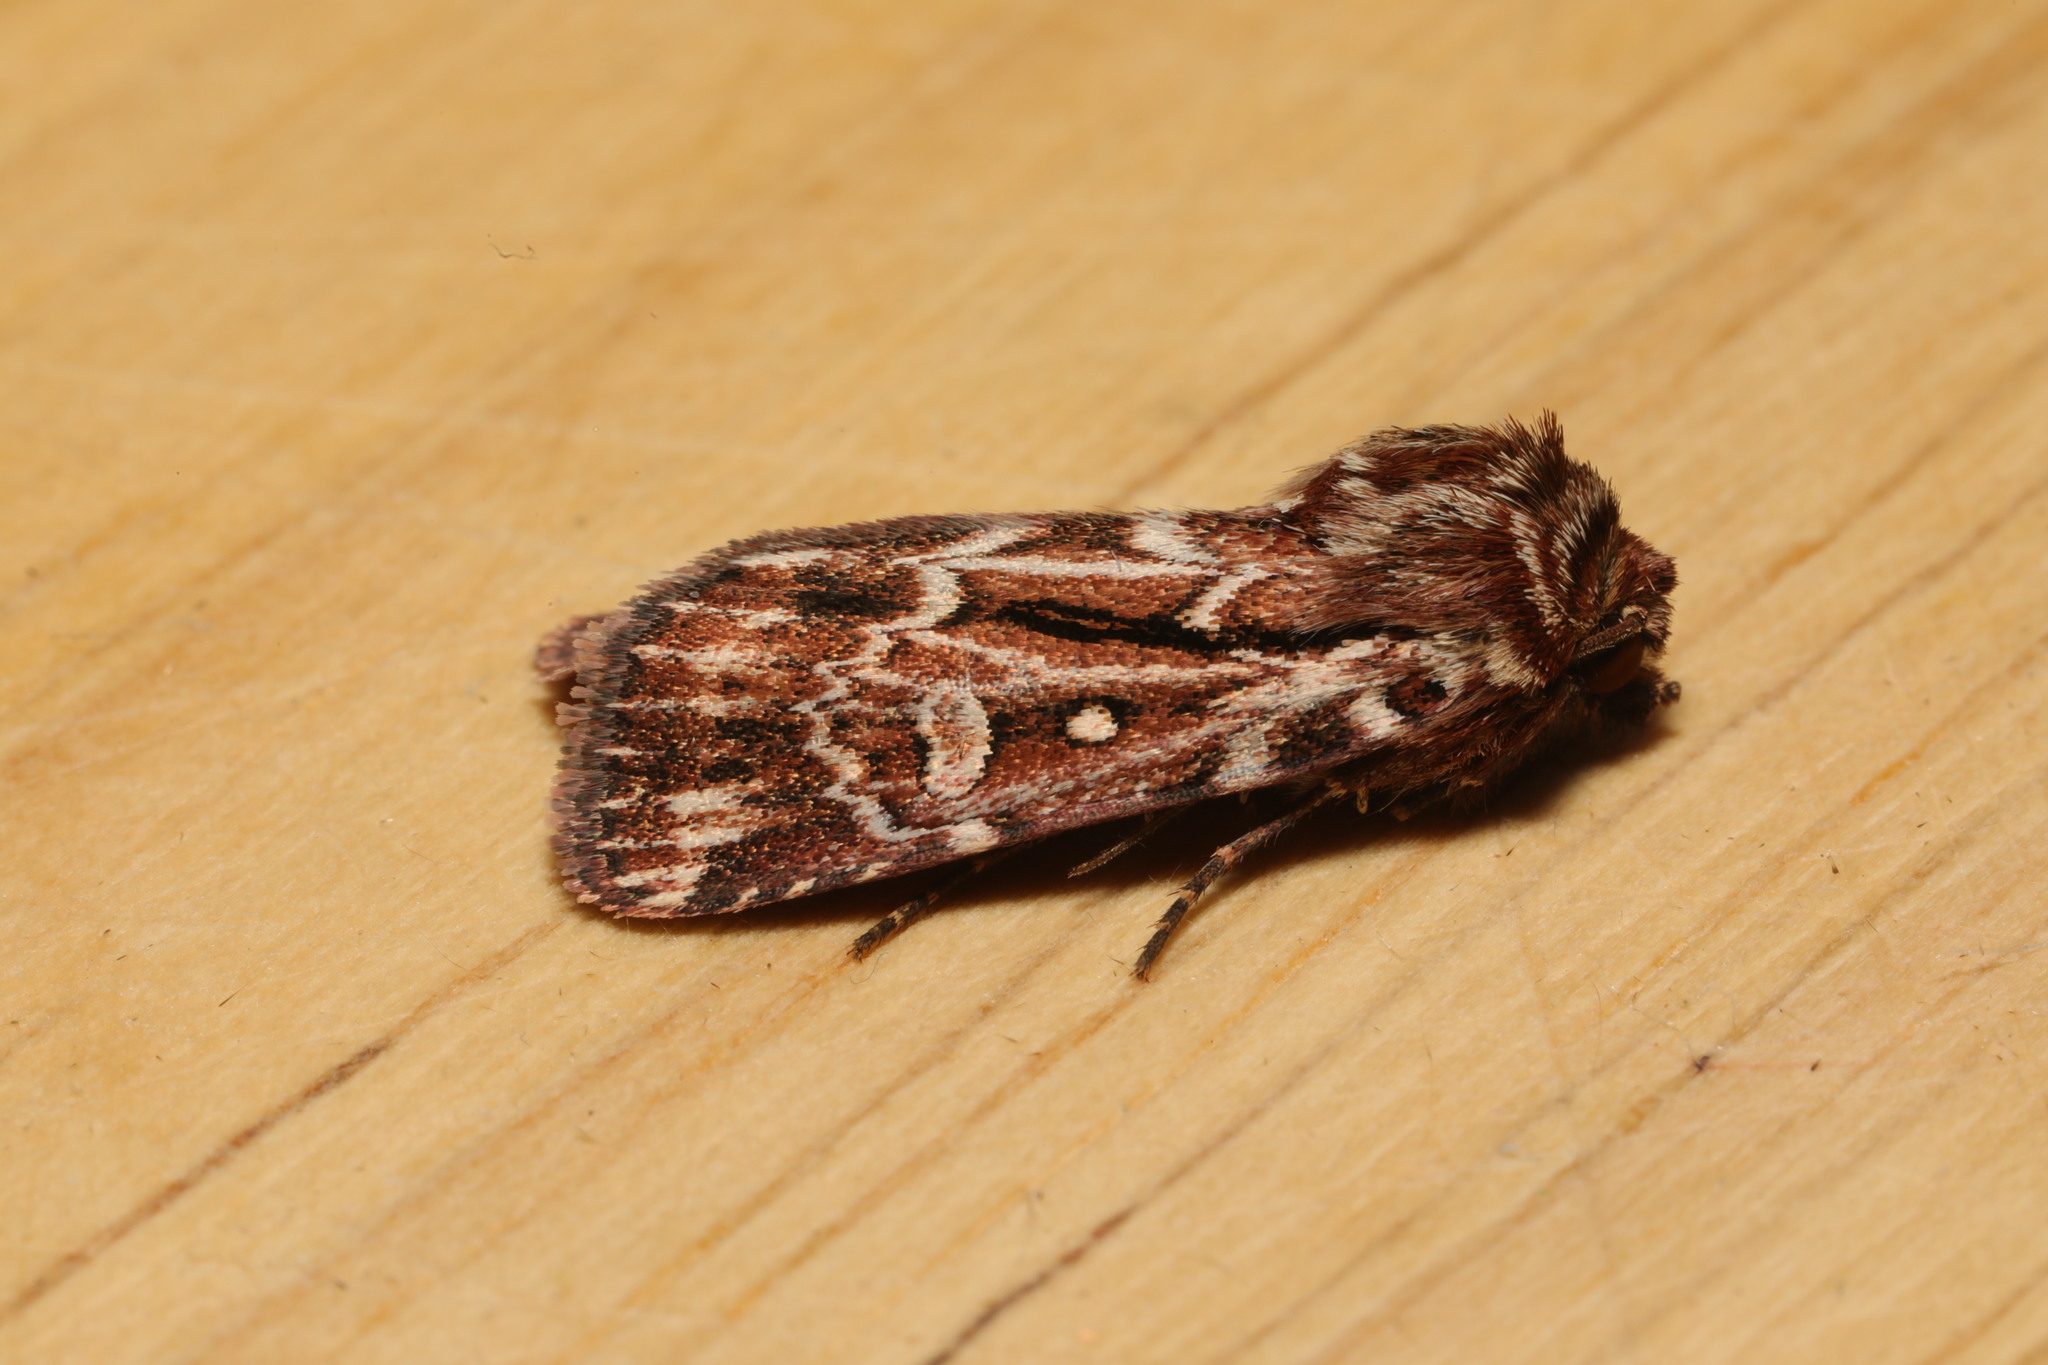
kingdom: Animalia
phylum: Arthropoda
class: Insecta
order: Lepidoptera
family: Noctuidae
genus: Lycophotia
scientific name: Lycophotia porphyrea
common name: True lover's knot
